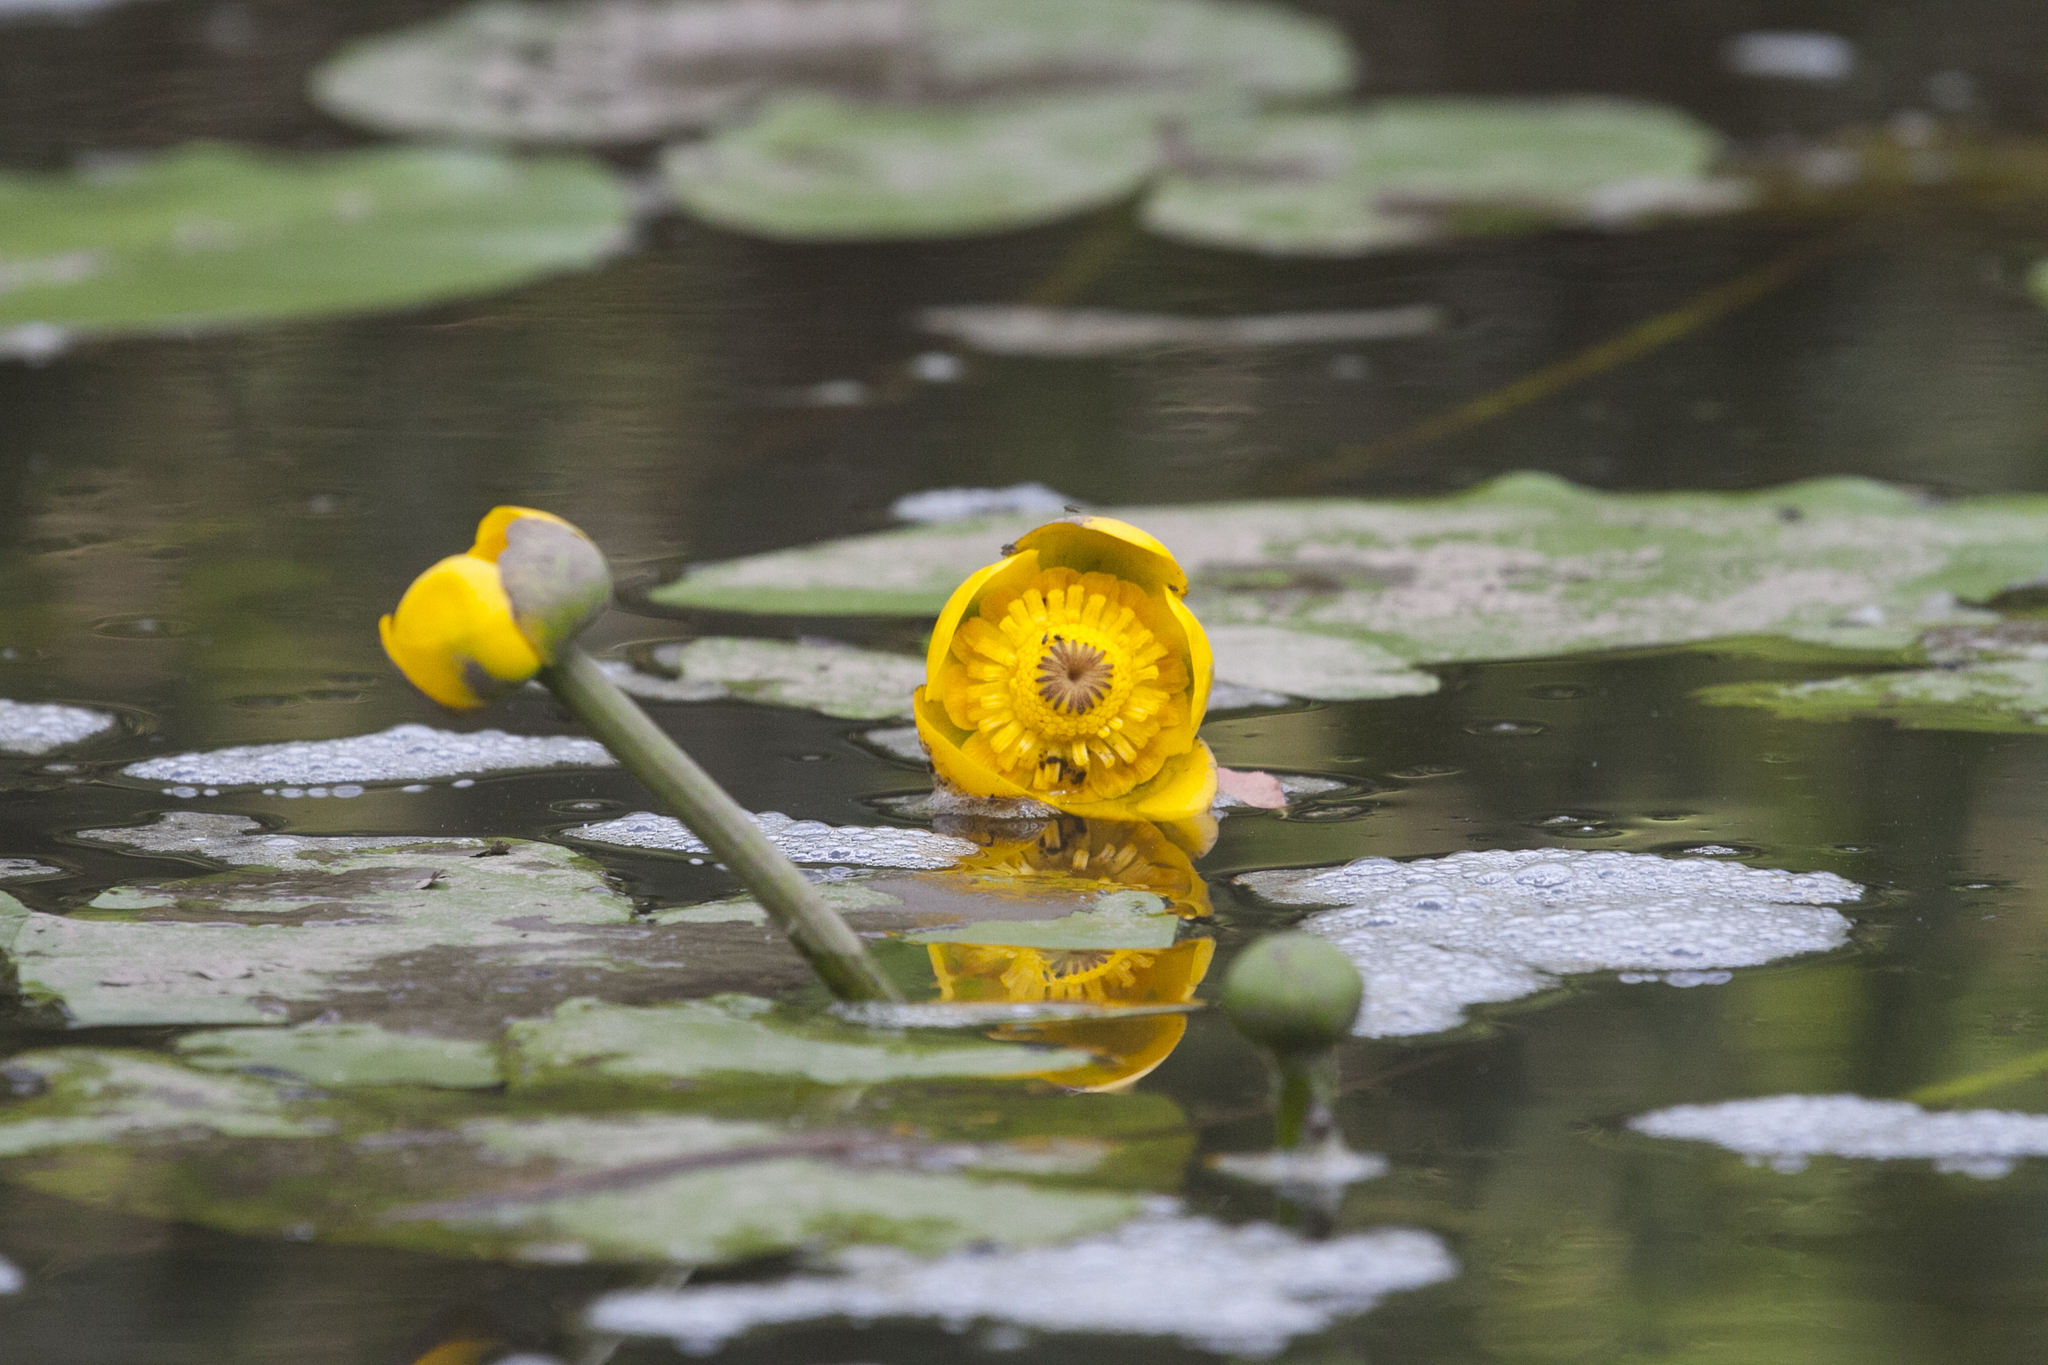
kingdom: Plantae
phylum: Tracheophyta
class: Magnoliopsida
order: Nymphaeales
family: Nymphaeaceae
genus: Nuphar
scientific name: Nuphar lutea
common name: Yellow water-lily
